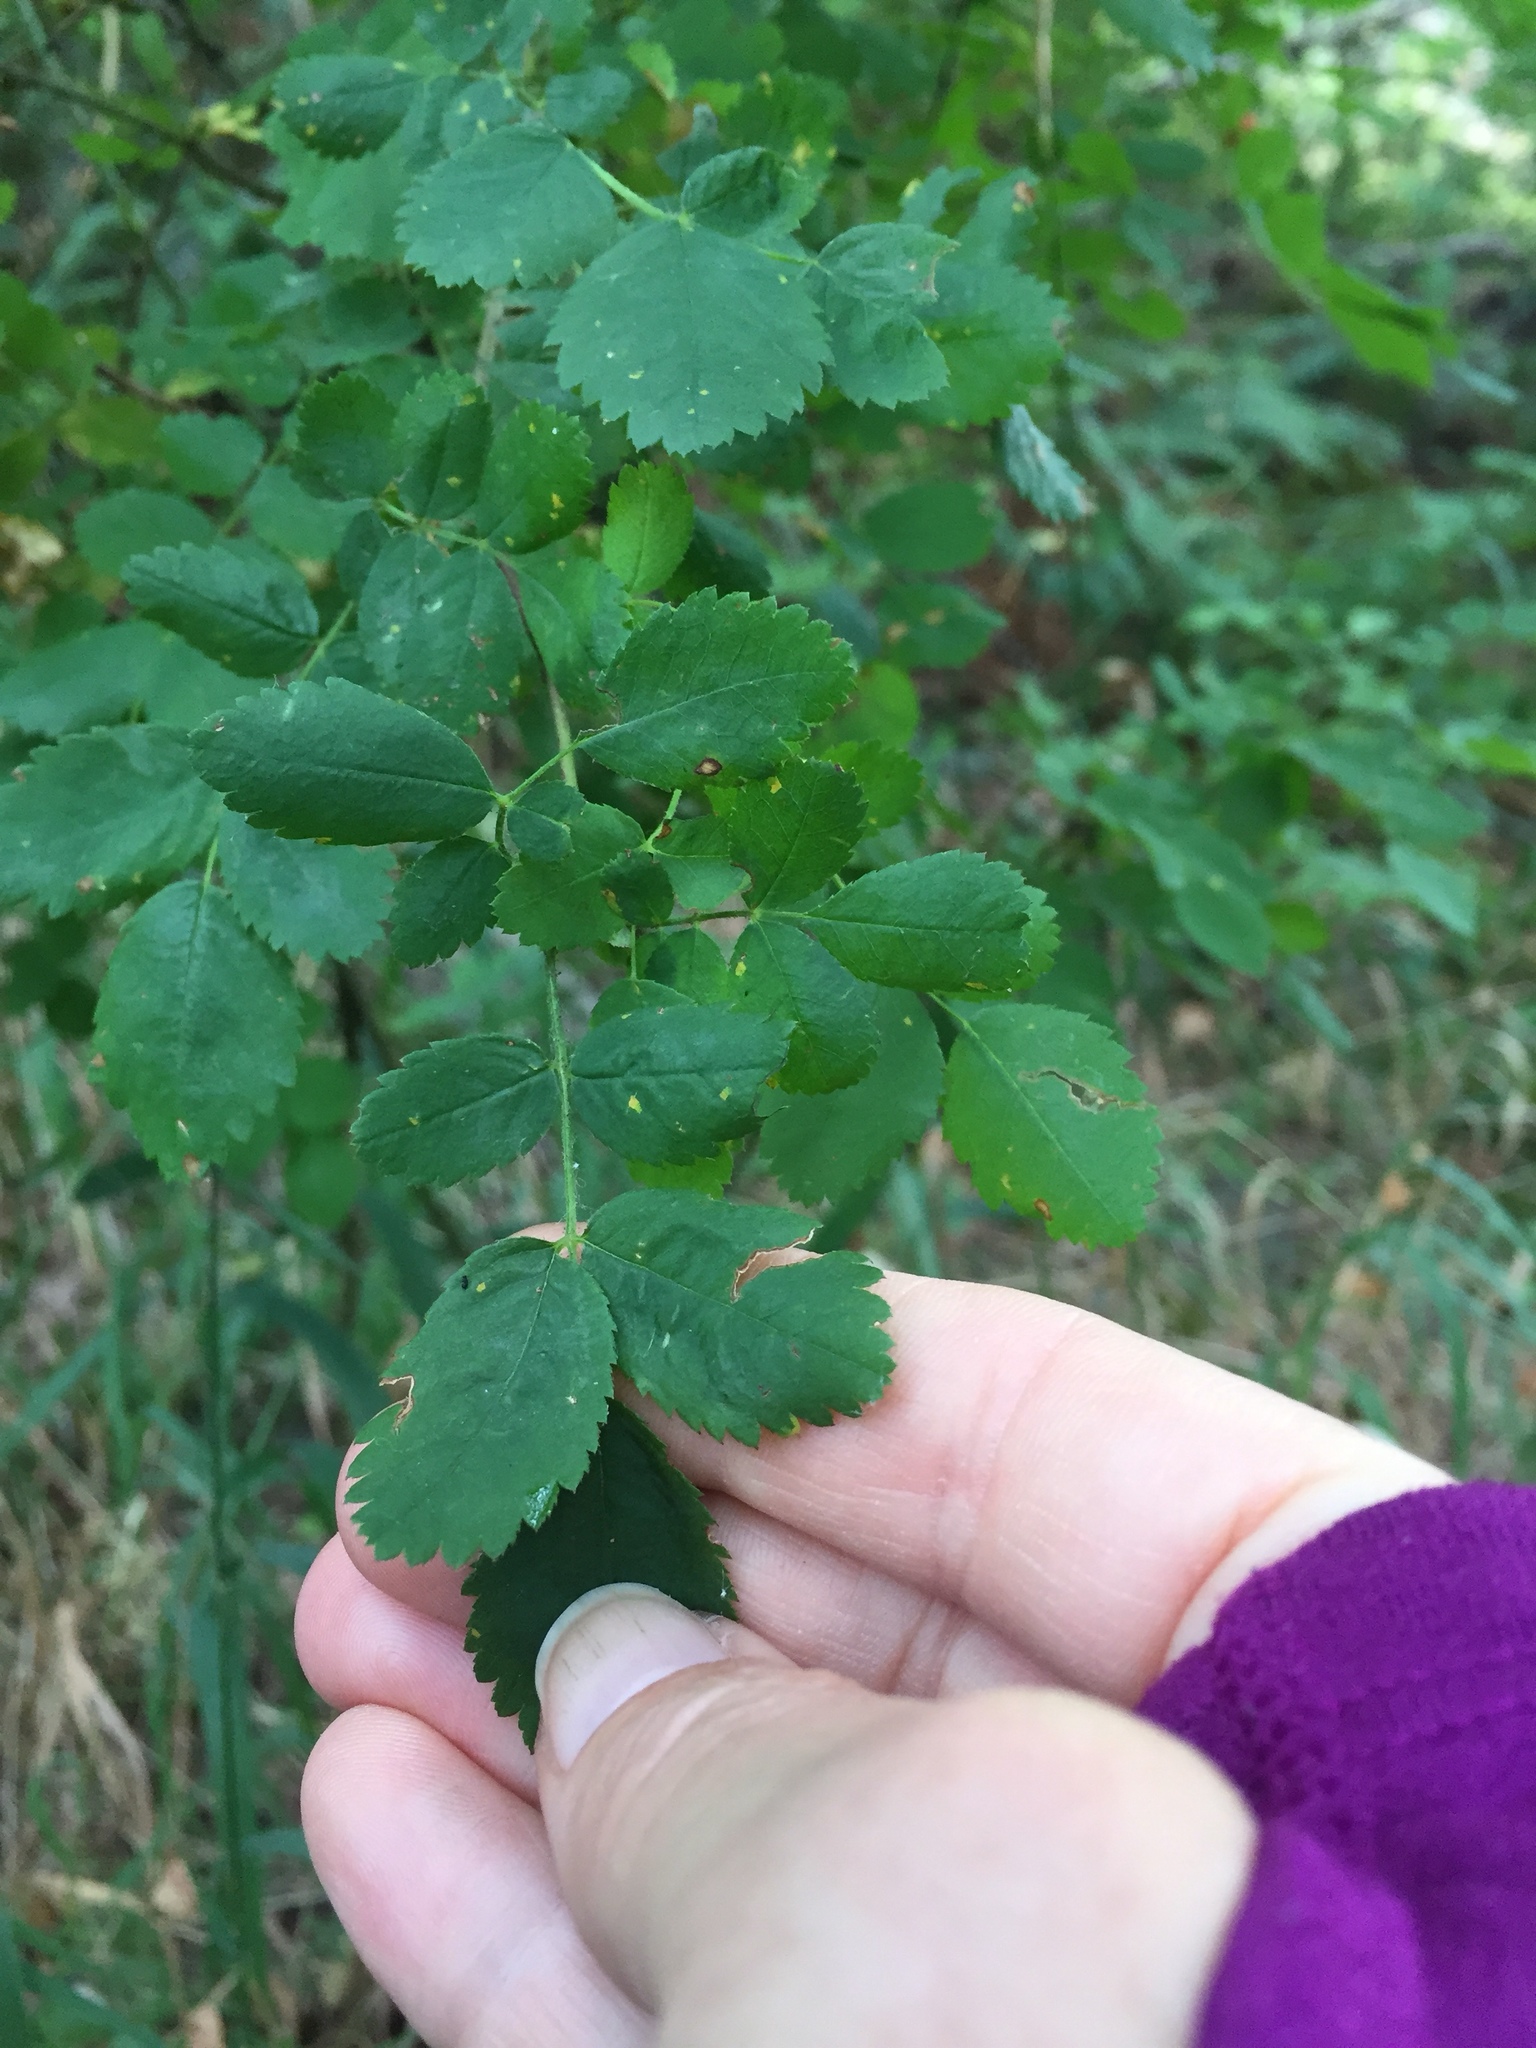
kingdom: Plantae
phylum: Tracheophyta
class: Magnoliopsida
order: Rosales
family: Rosaceae
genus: Rosa
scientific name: Rosa gymnocarpa
